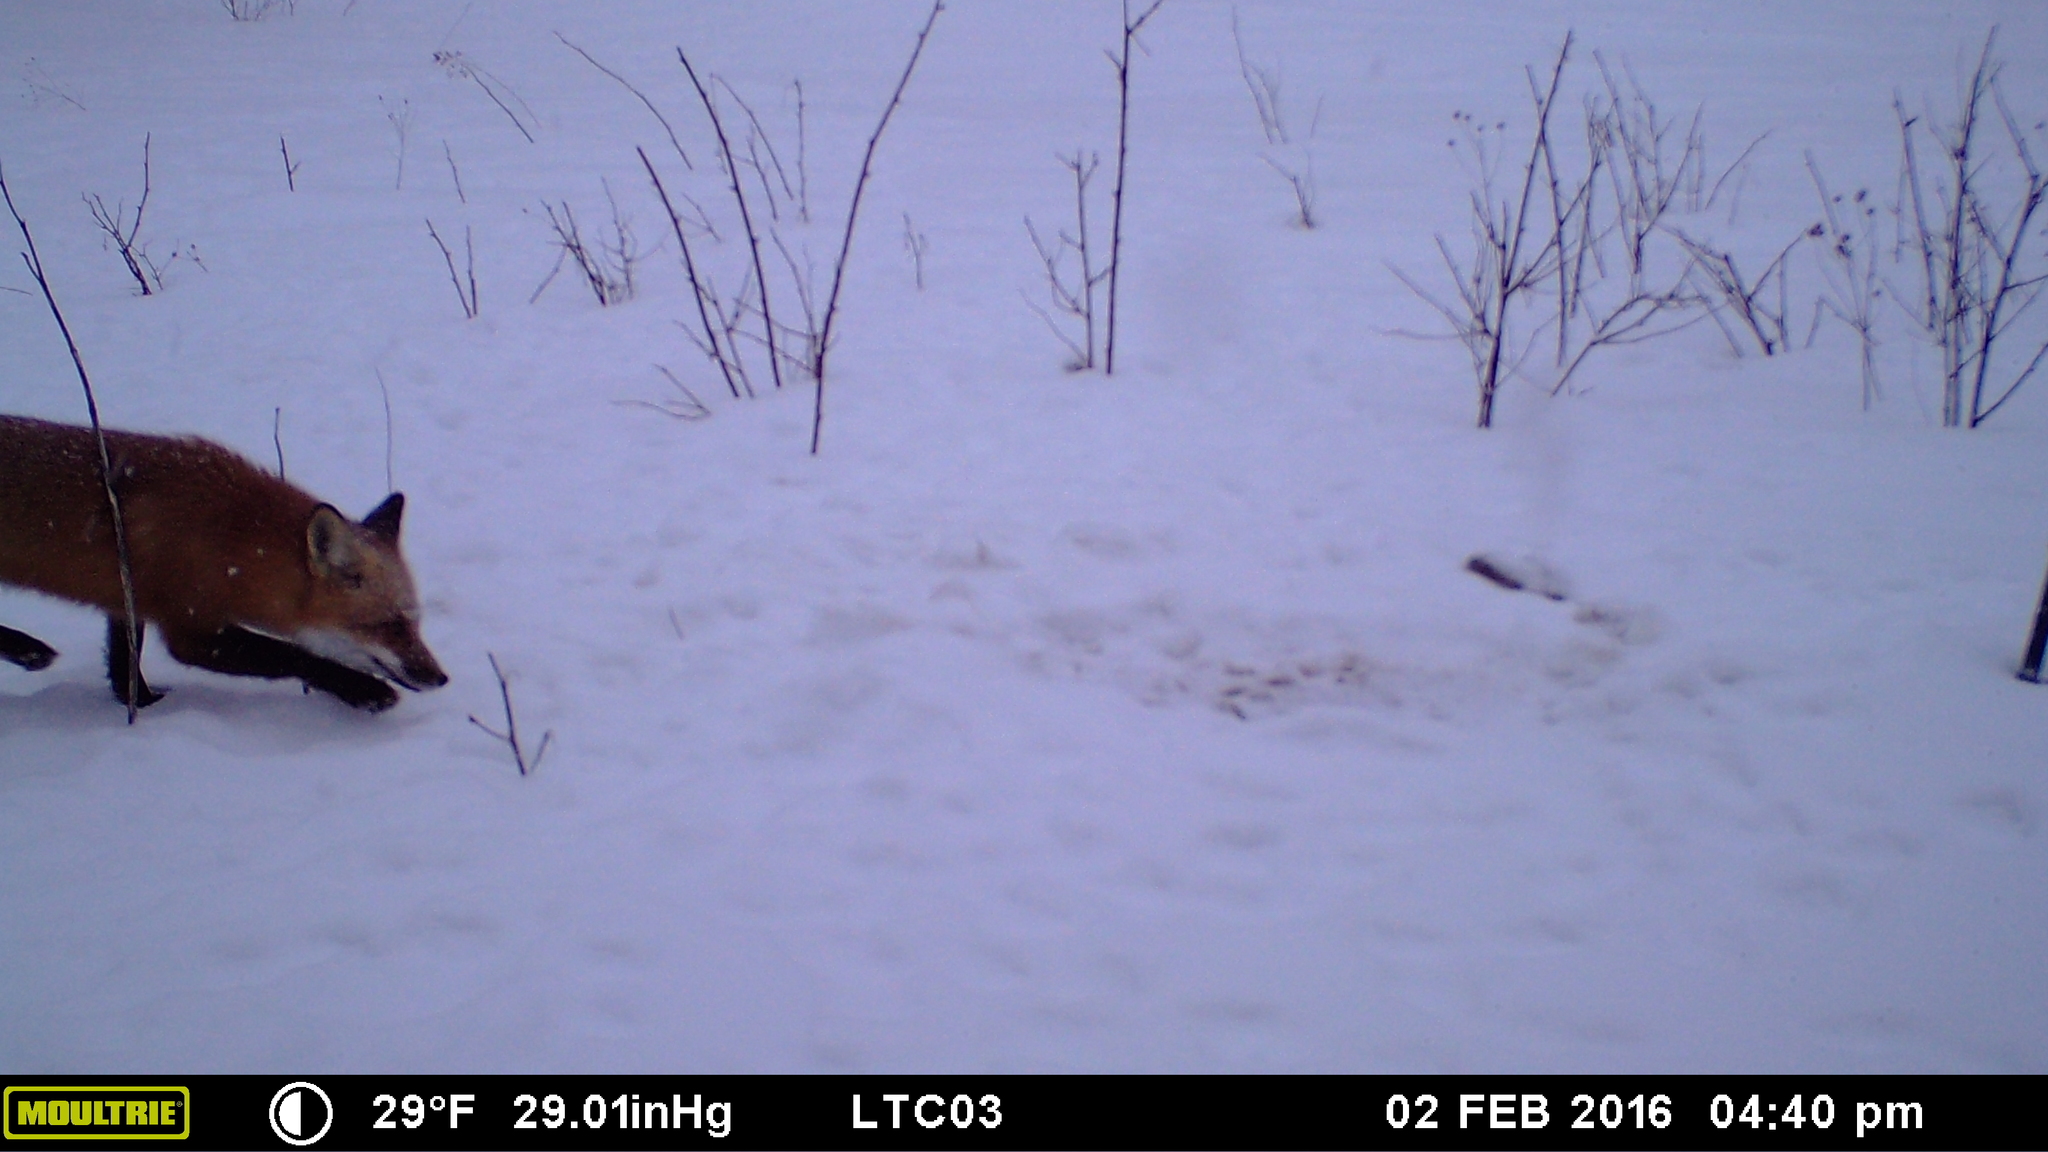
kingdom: Animalia
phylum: Chordata
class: Mammalia
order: Carnivora
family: Canidae
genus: Vulpes
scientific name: Vulpes vulpes
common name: Red fox
